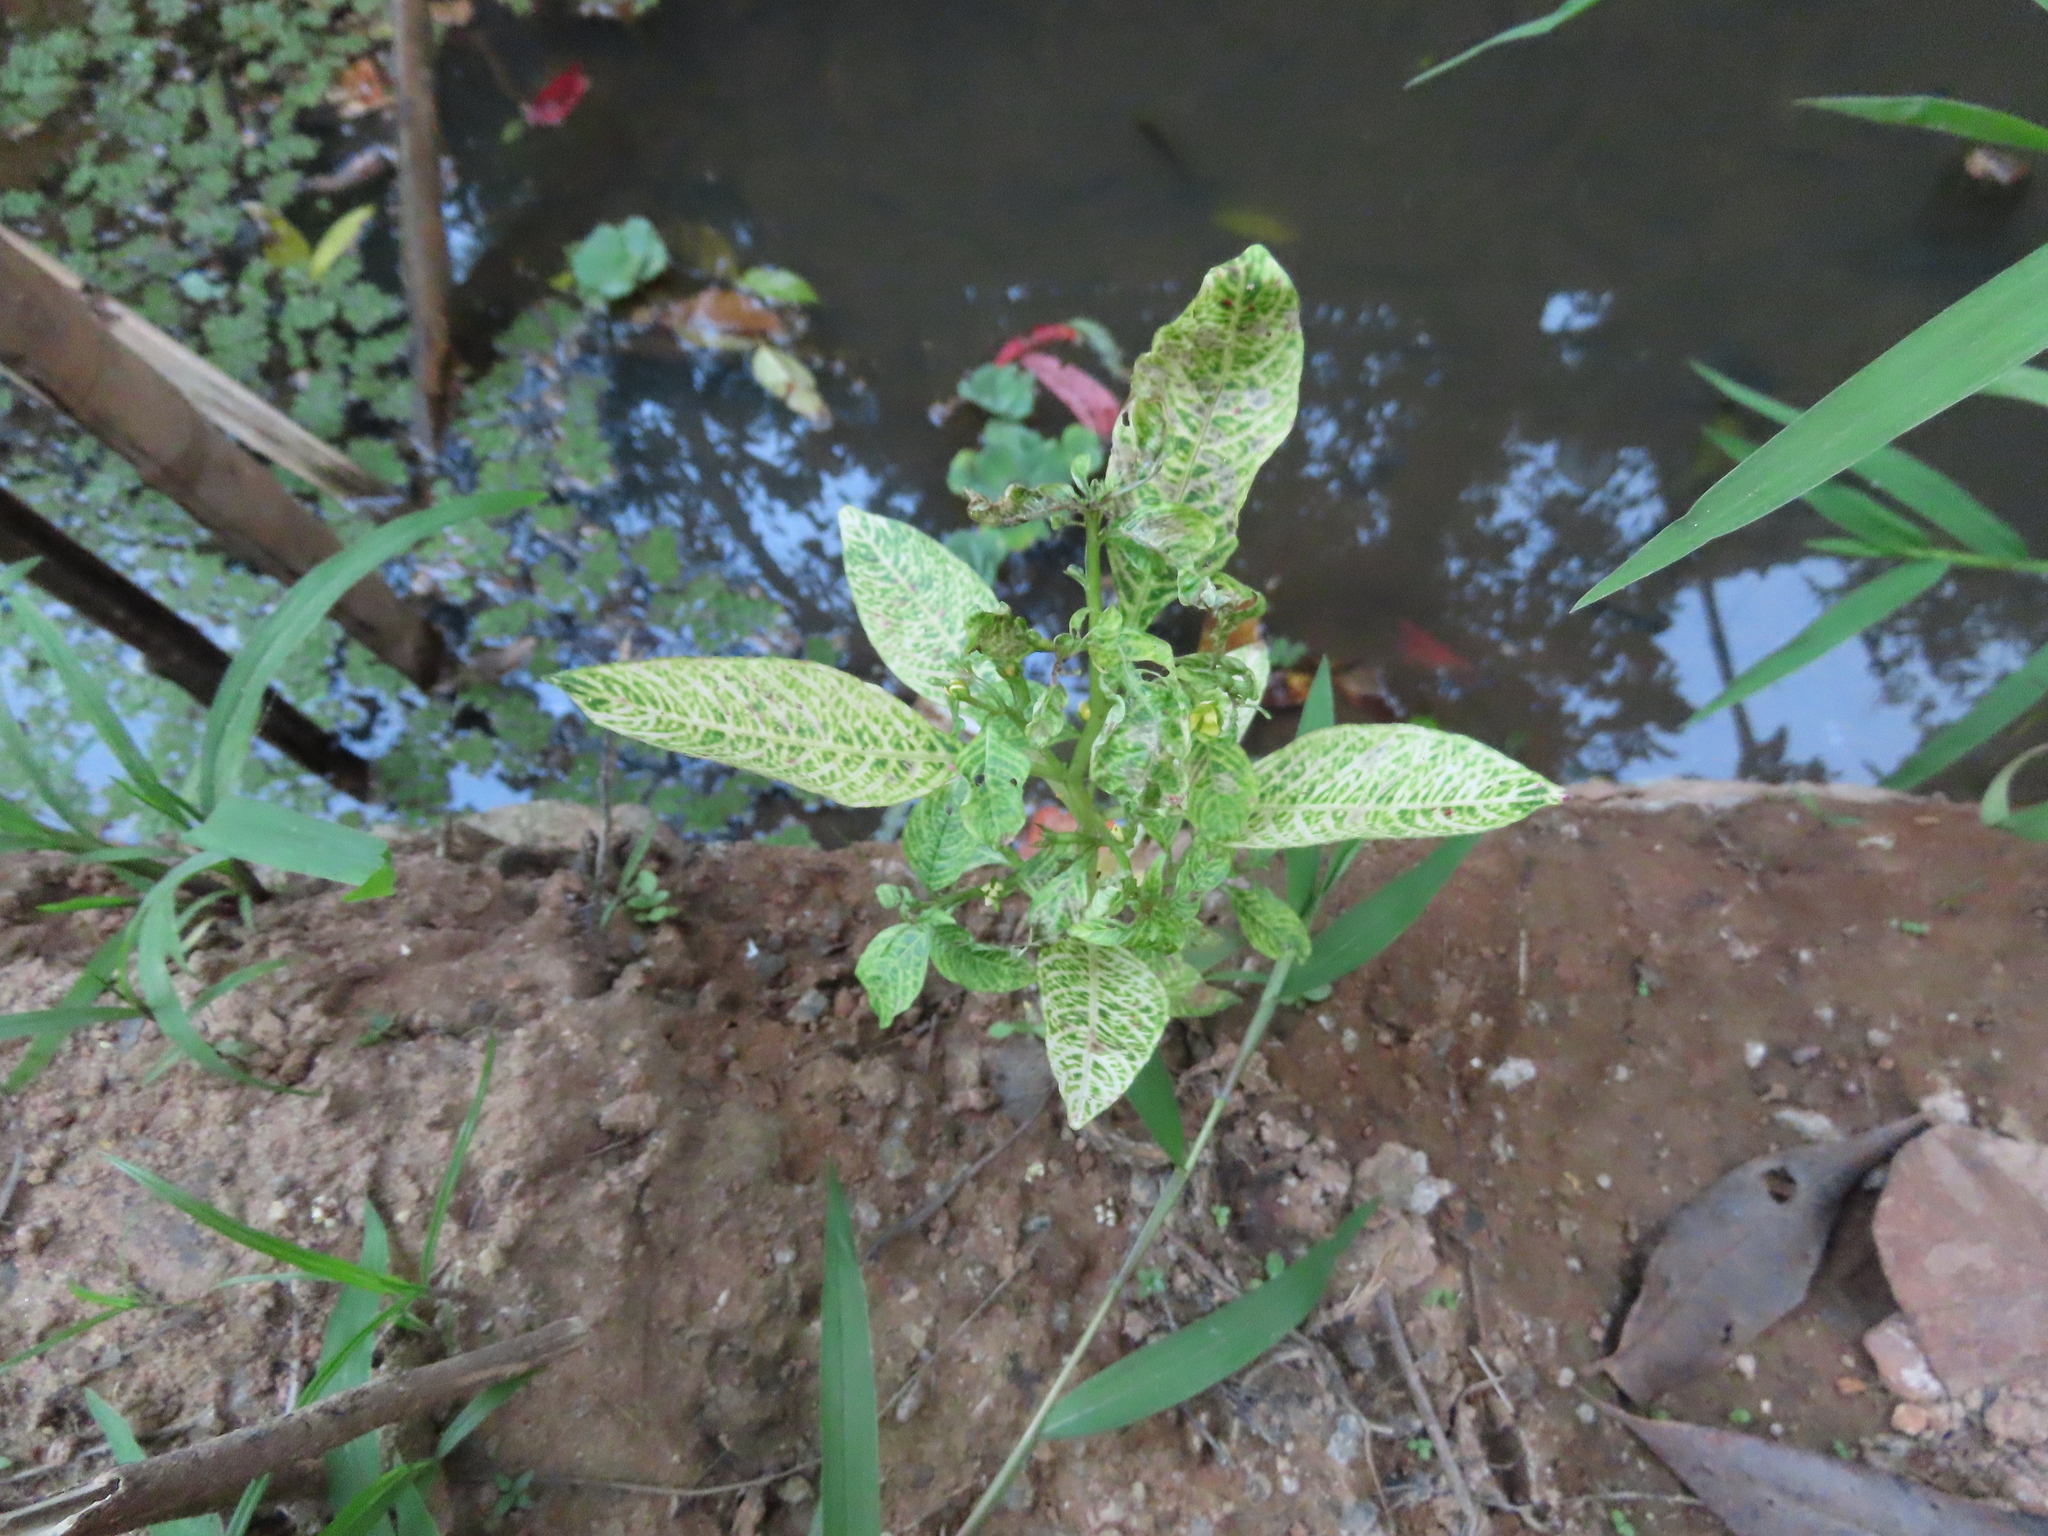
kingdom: Plantae
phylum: Tracheophyta
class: Magnoliopsida
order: Asterales
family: Asteraceae
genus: Synedrella
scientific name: Synedrella nodiflora
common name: Nodeweed
